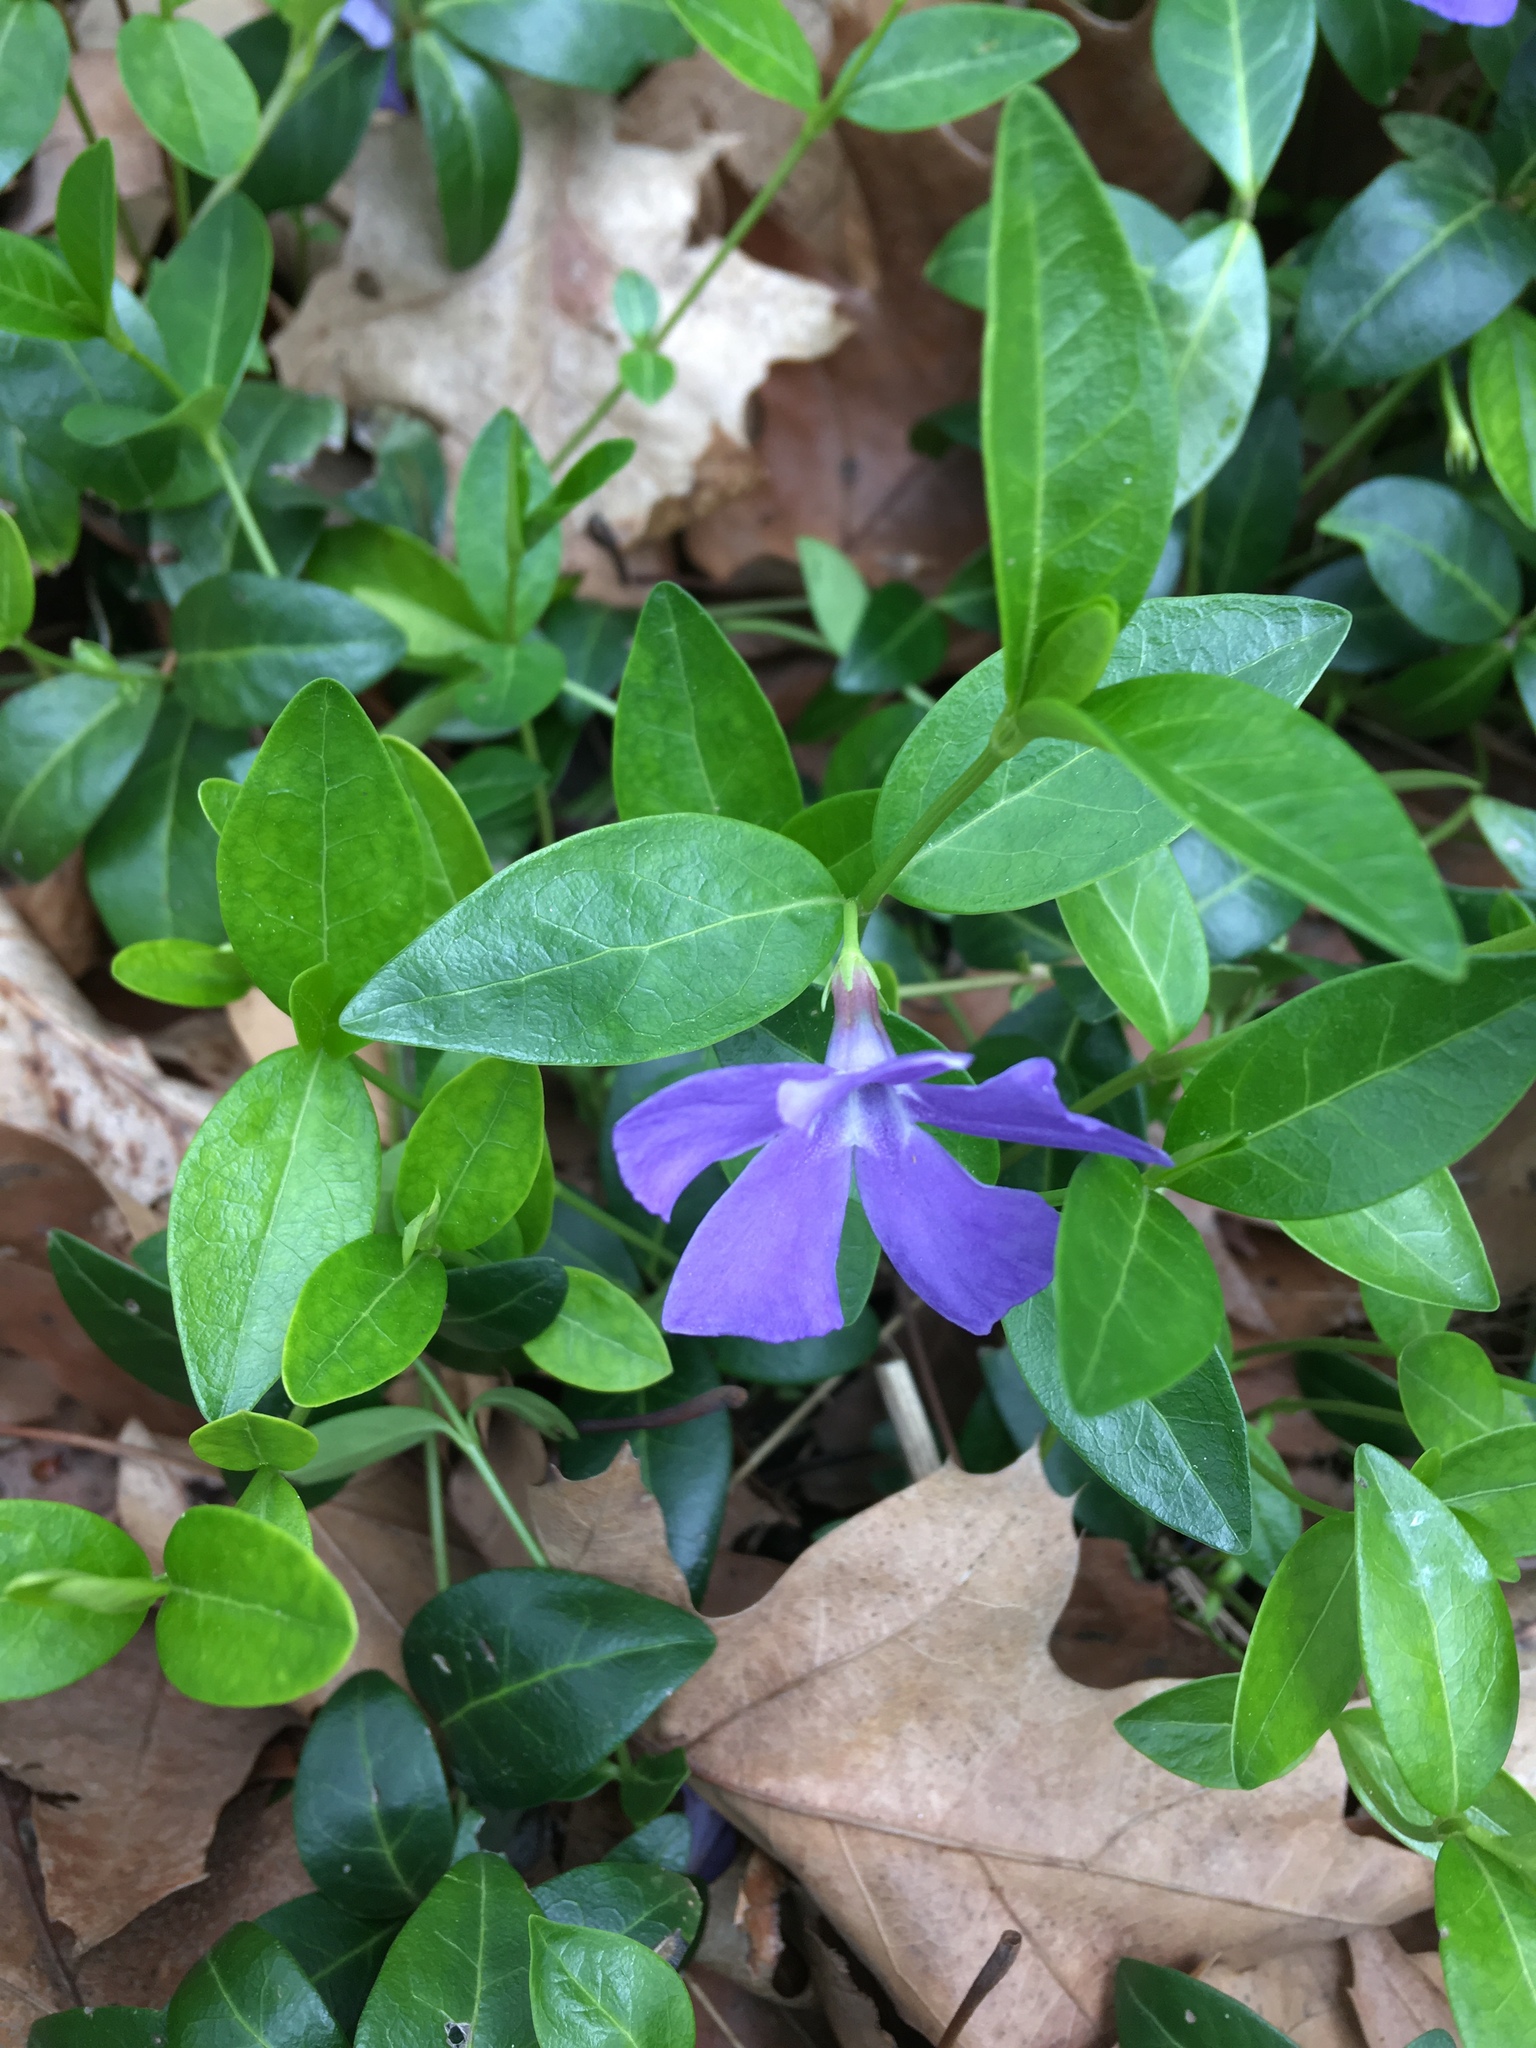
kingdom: Plantae
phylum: Tracheophyta
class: Magnoliopsida
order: Gentianales
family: Apocynaceae
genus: Vinca
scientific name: Vinca minor
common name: Lesser periwinkle
